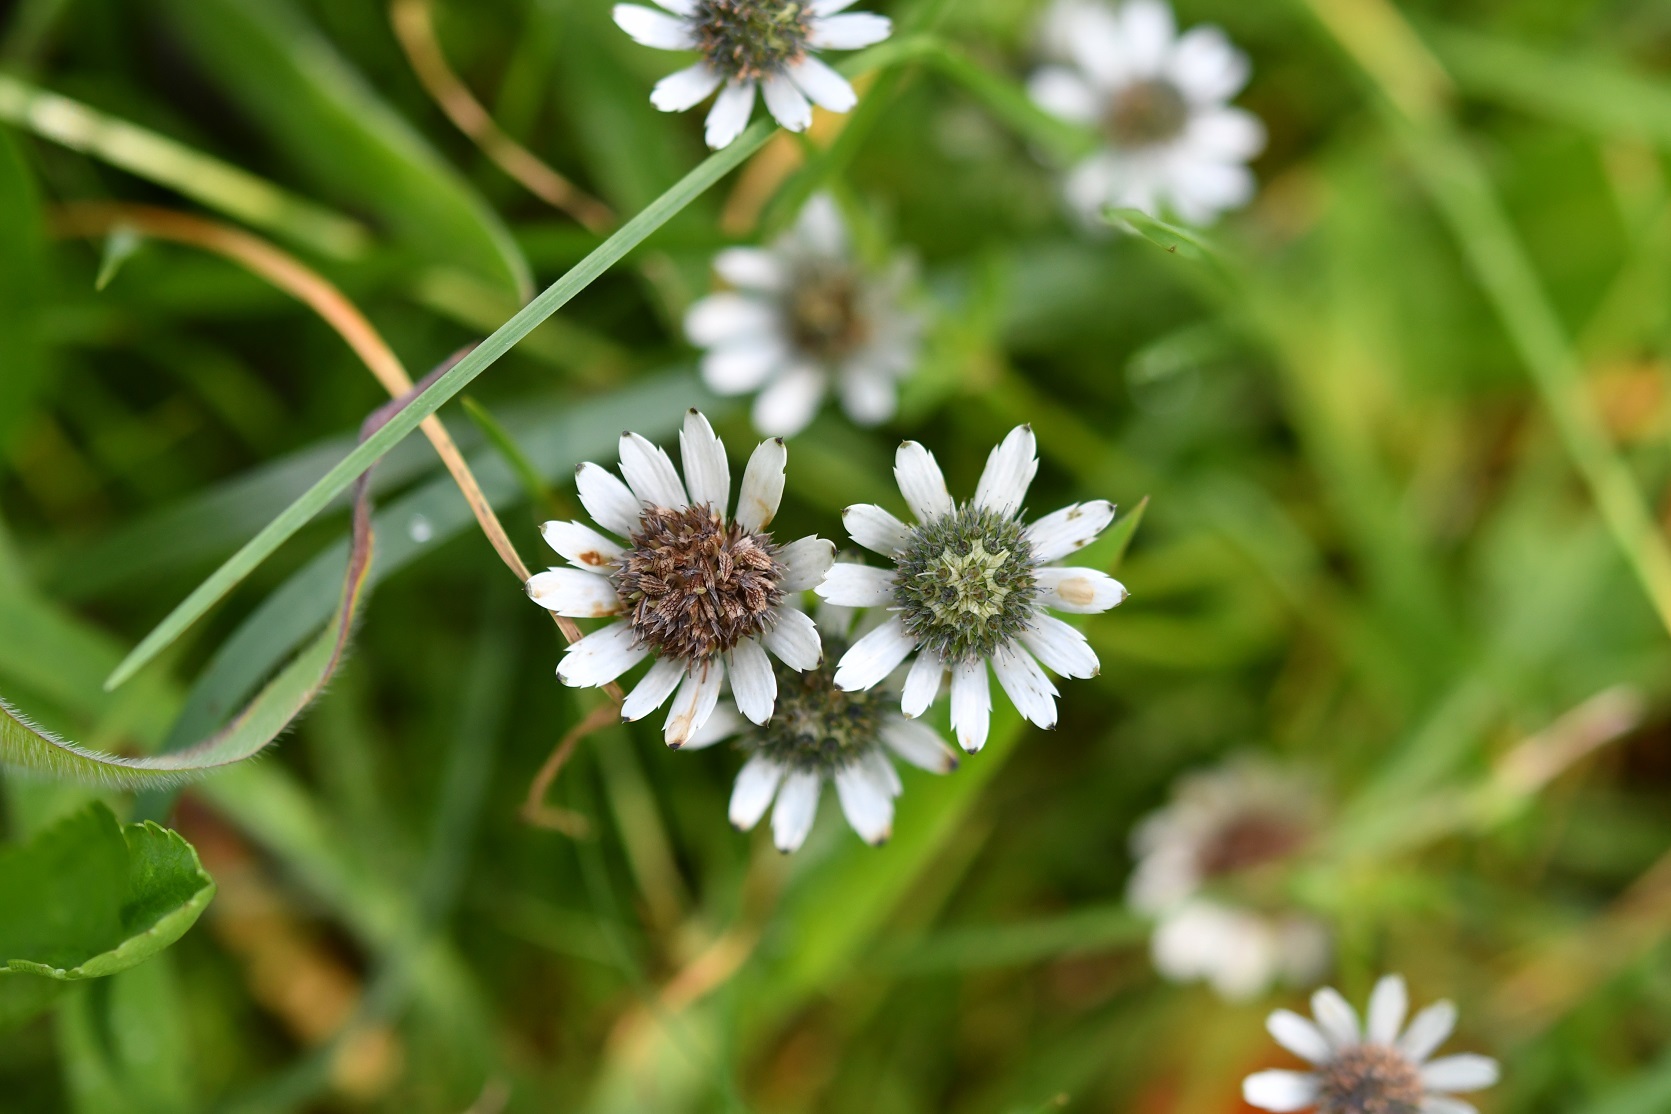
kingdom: Plantae
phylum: Tracheophyta
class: Magnoliopsida
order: Apiales
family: Apiaceae
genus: Eryngium
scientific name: Eryngium scaposum
